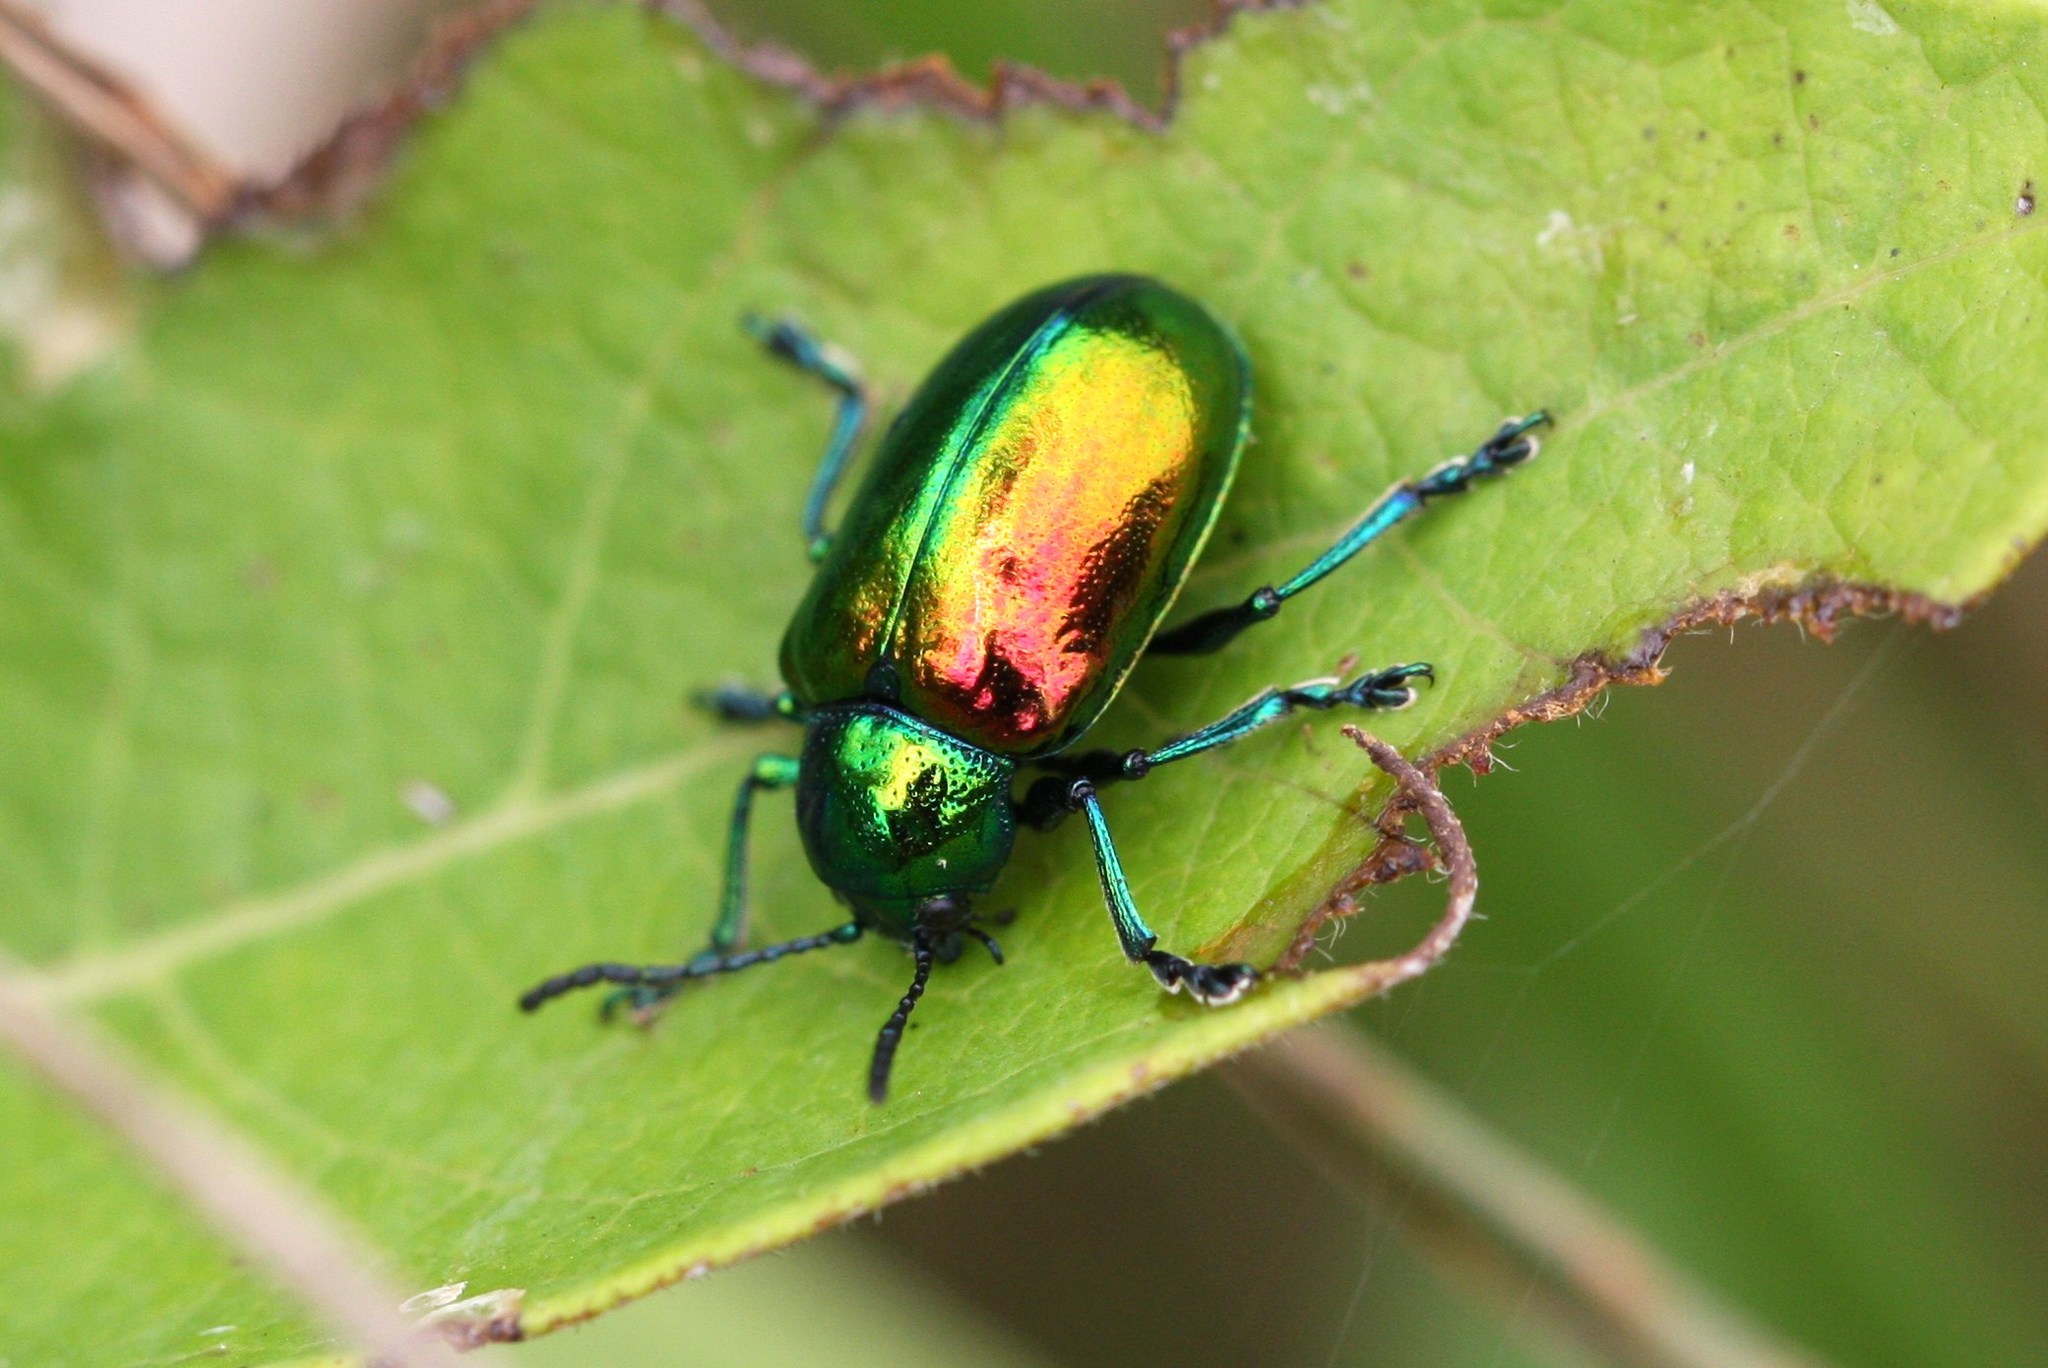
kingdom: Animalia
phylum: Arthropoda
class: Insecta
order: Coleoptera
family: Chrysomelidae
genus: Chrysochus
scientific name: Chrysochus auratus
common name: Dogbane leaf beetle
